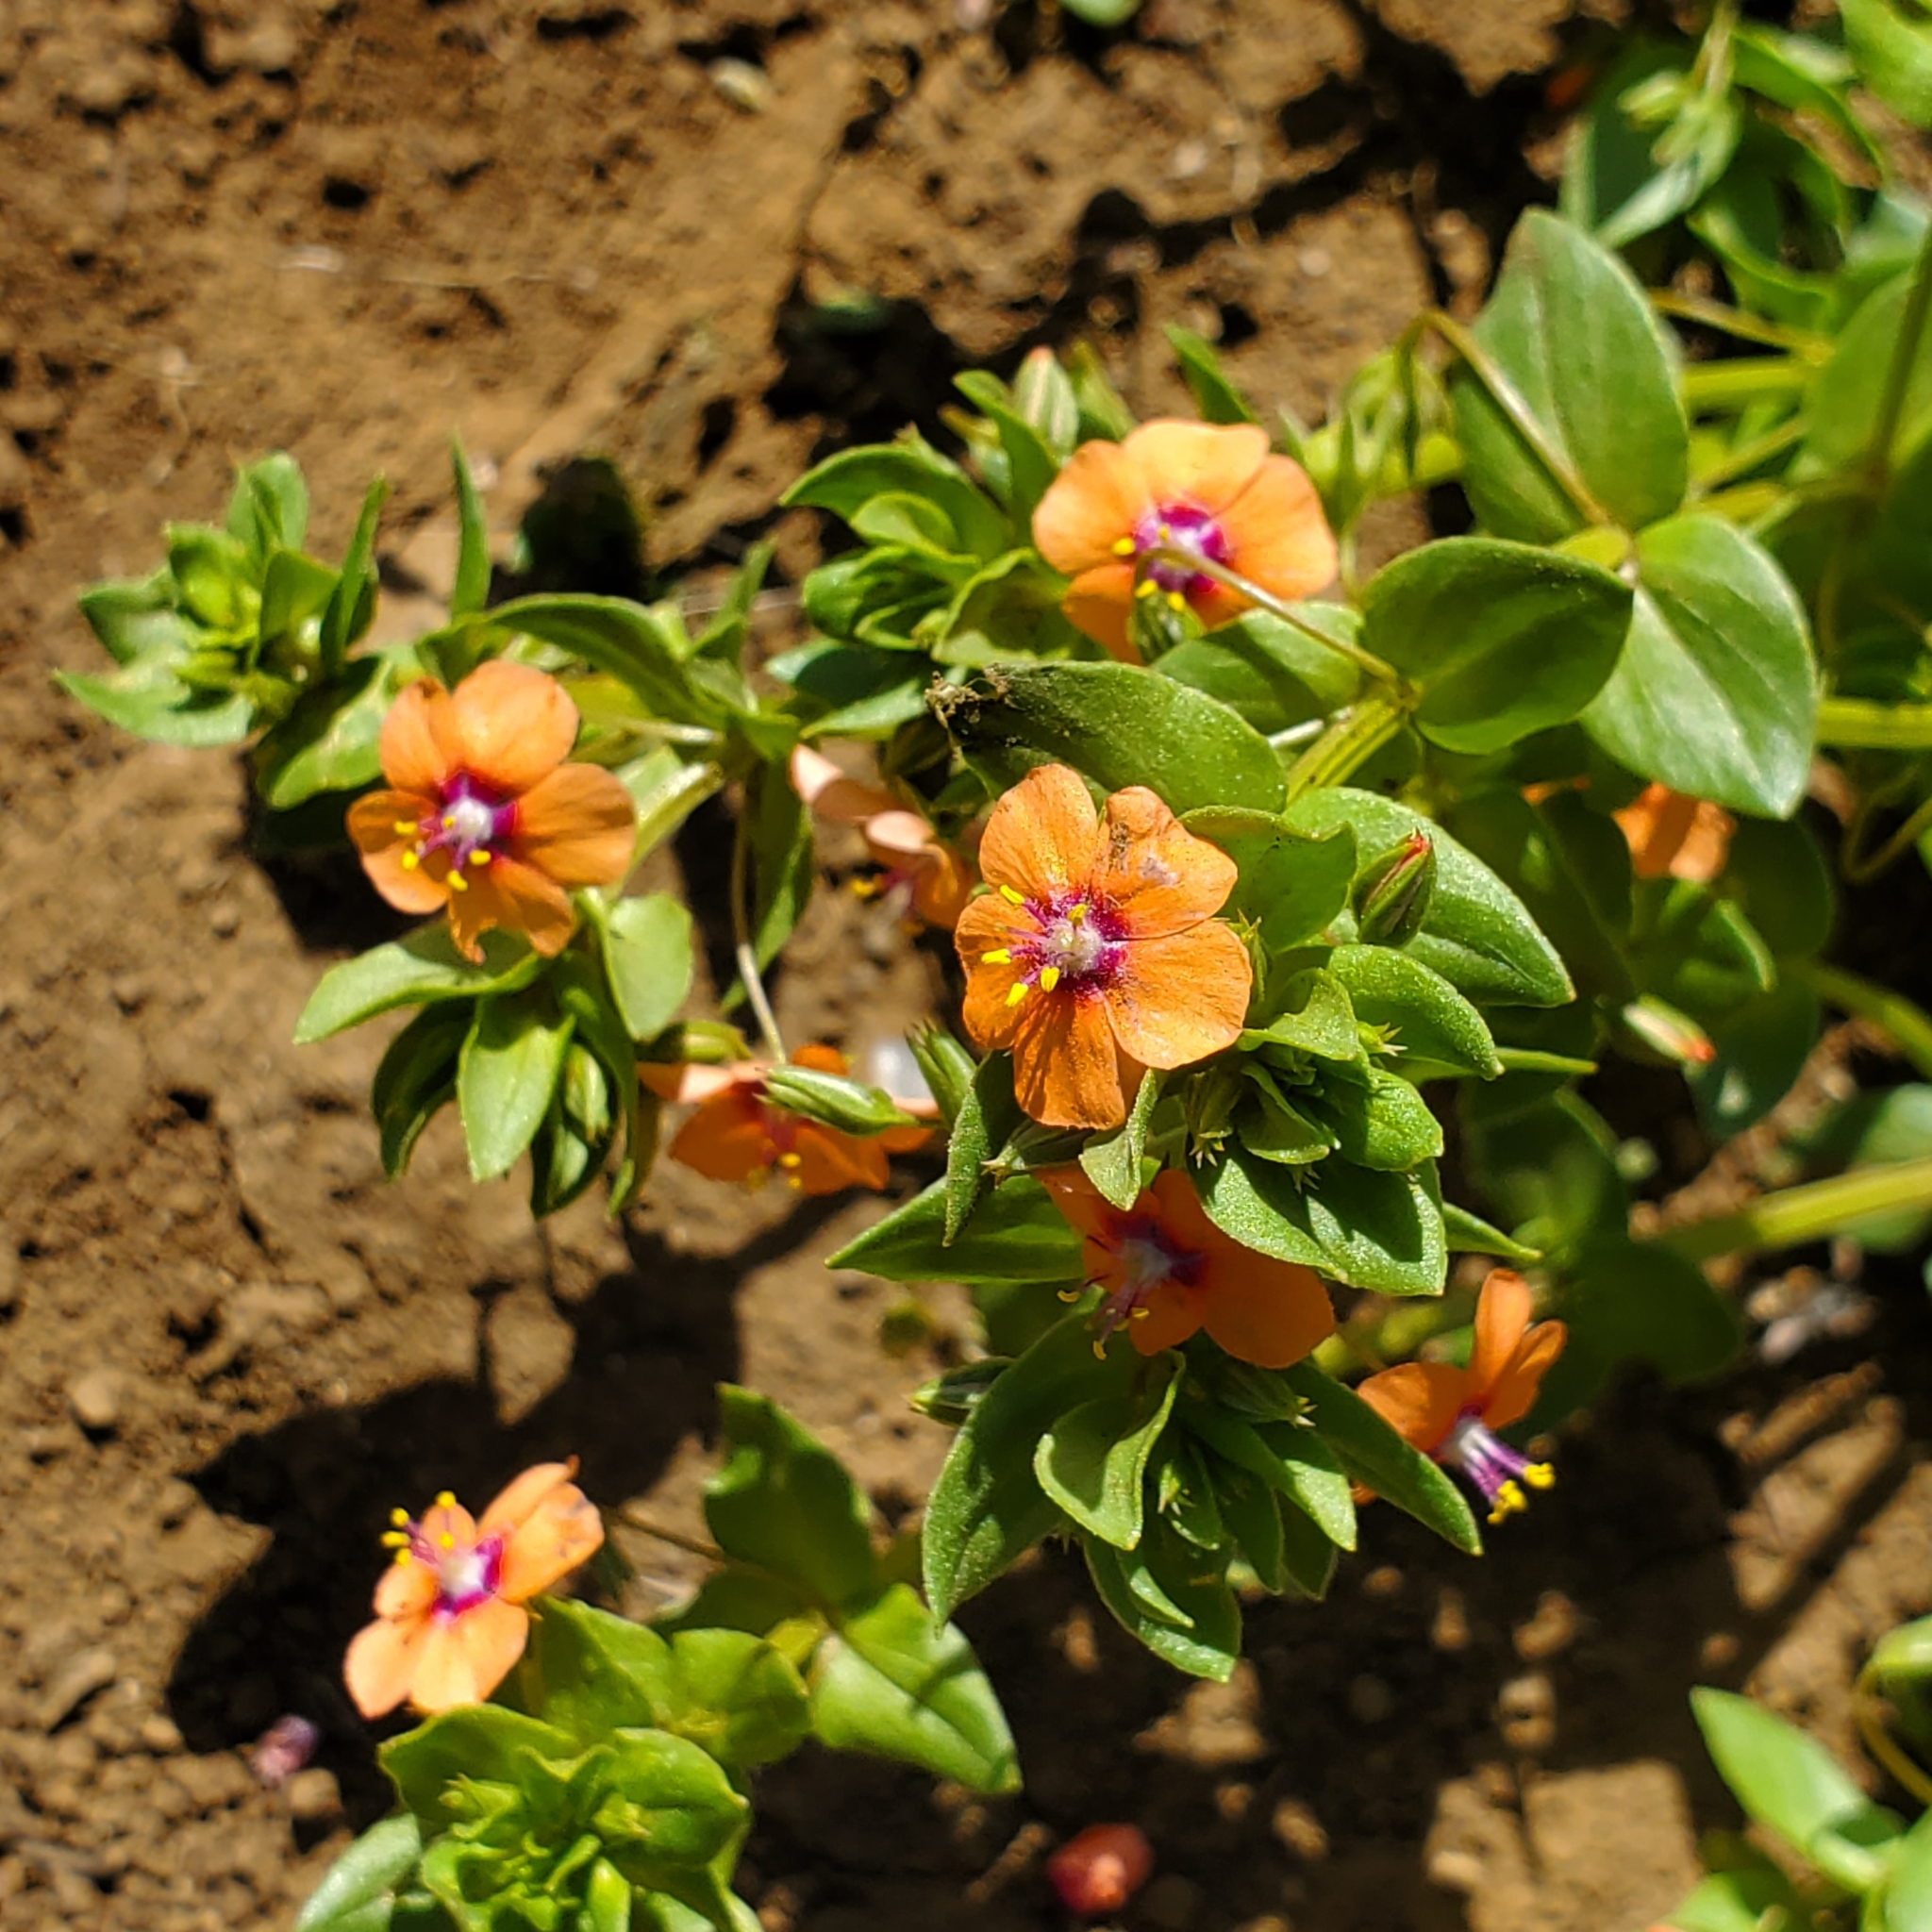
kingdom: Plantae
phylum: Tracheophyta
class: Magnoliopsida
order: Ericales
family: Primulaceae
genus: Lysimachia
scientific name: Lysimachia arvensis
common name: Scarlet pimpernel
